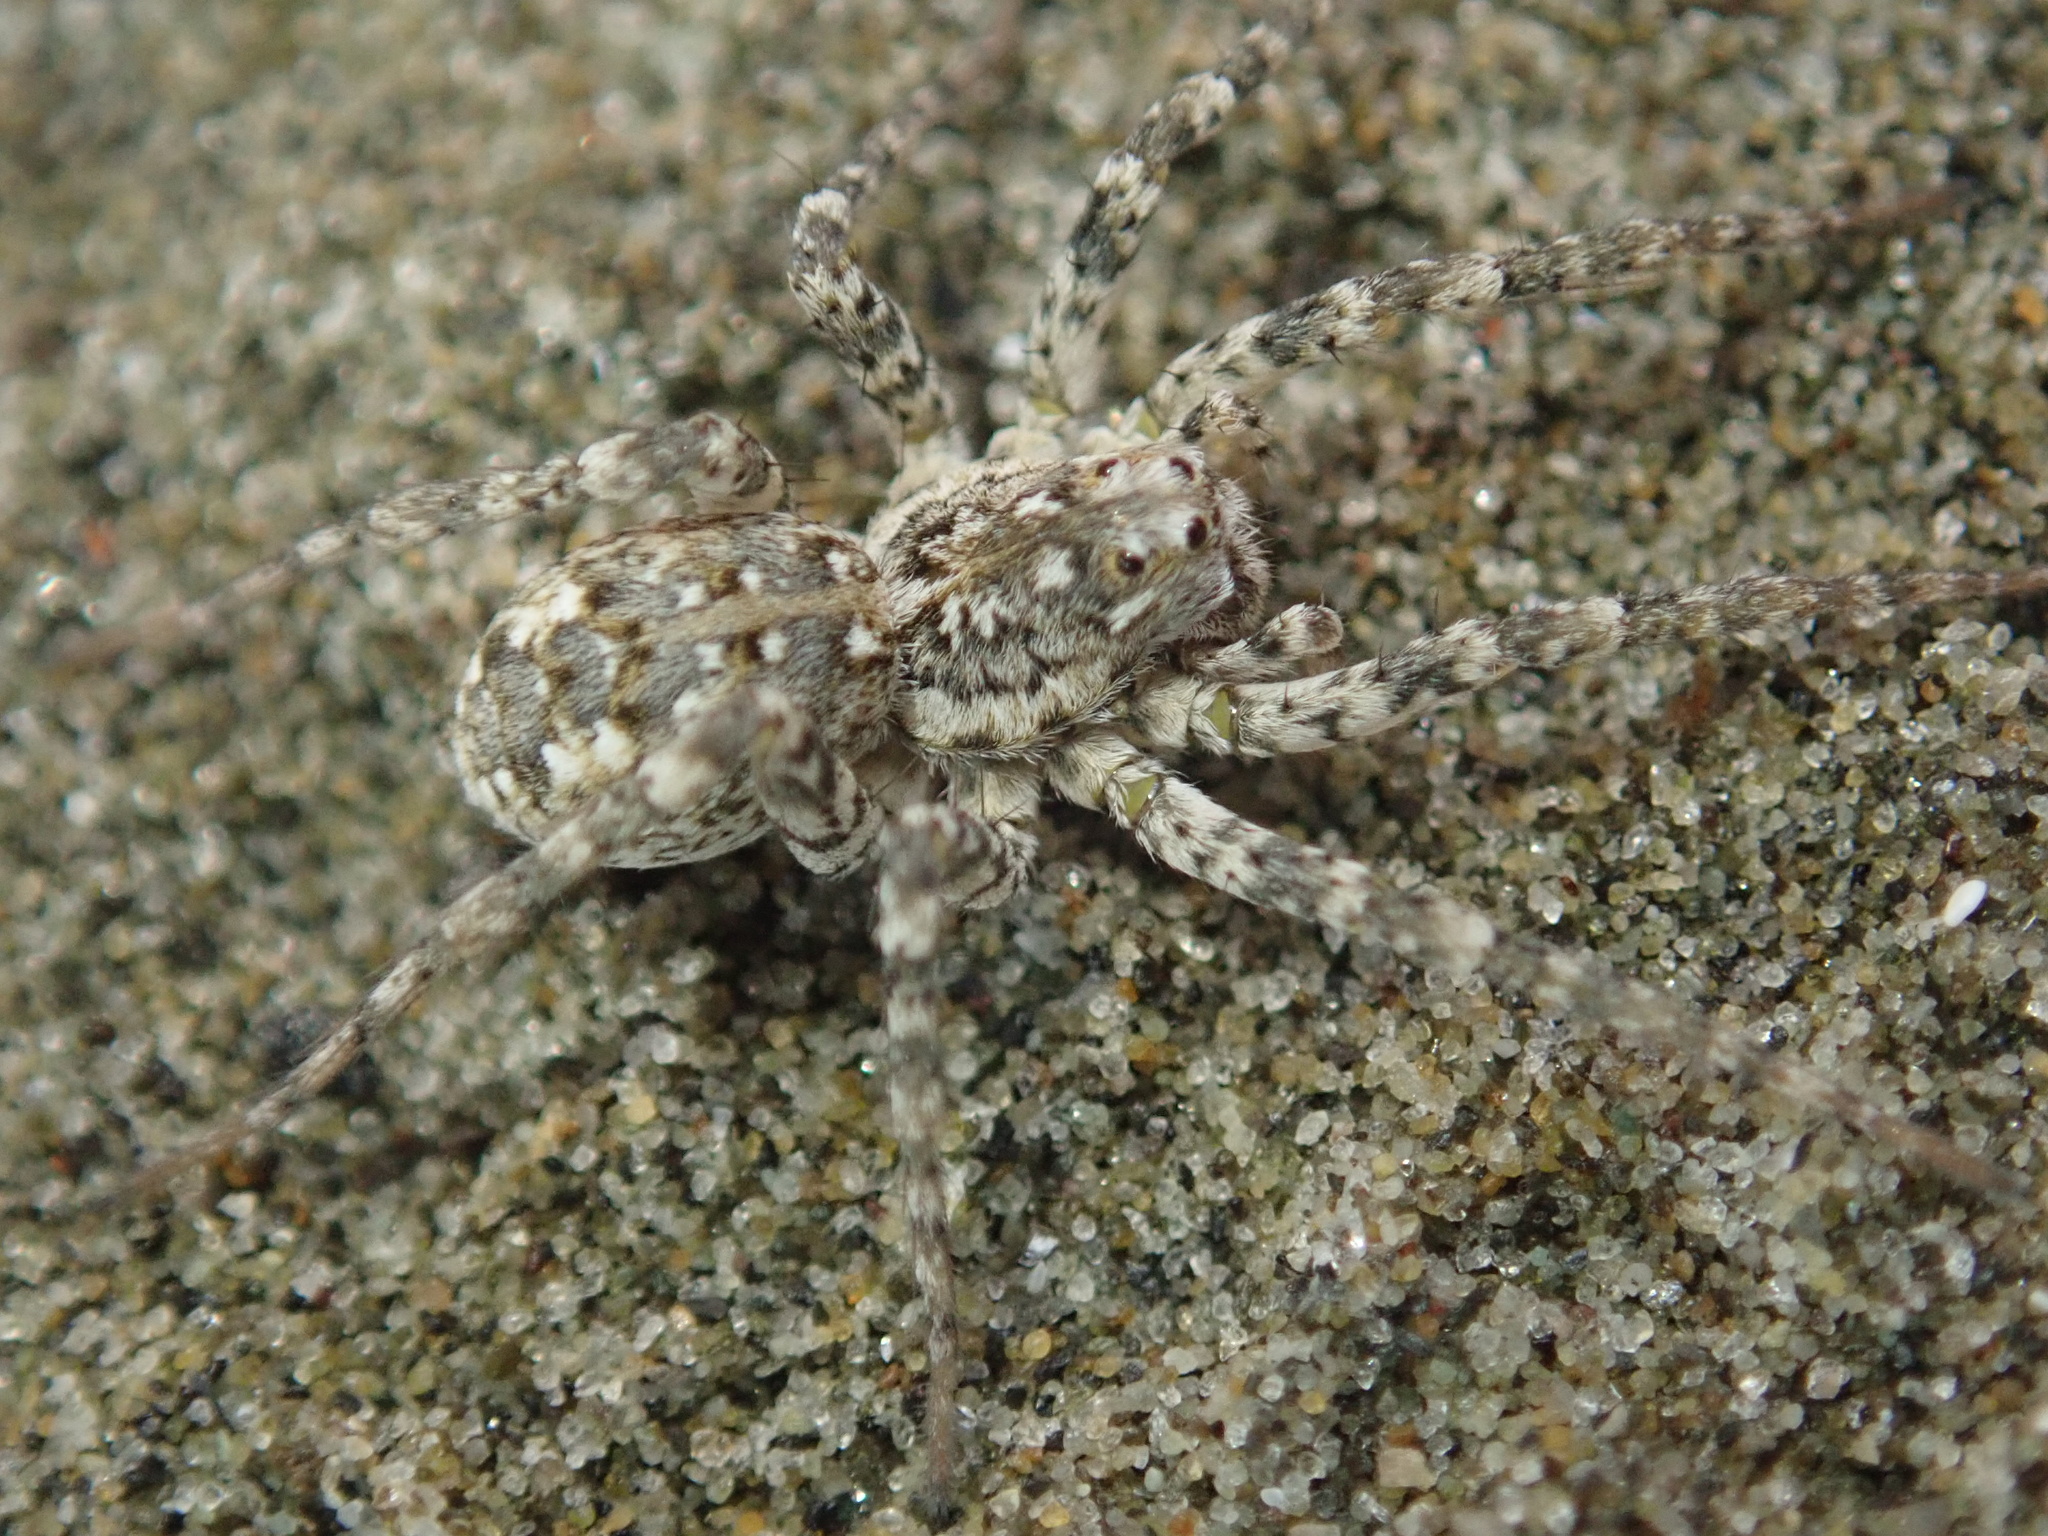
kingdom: Animalia
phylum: Arthropoda
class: Arachnida
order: Araneae
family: Lycosidae
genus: Anoteropsis
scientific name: Anoteropsis litoralis
